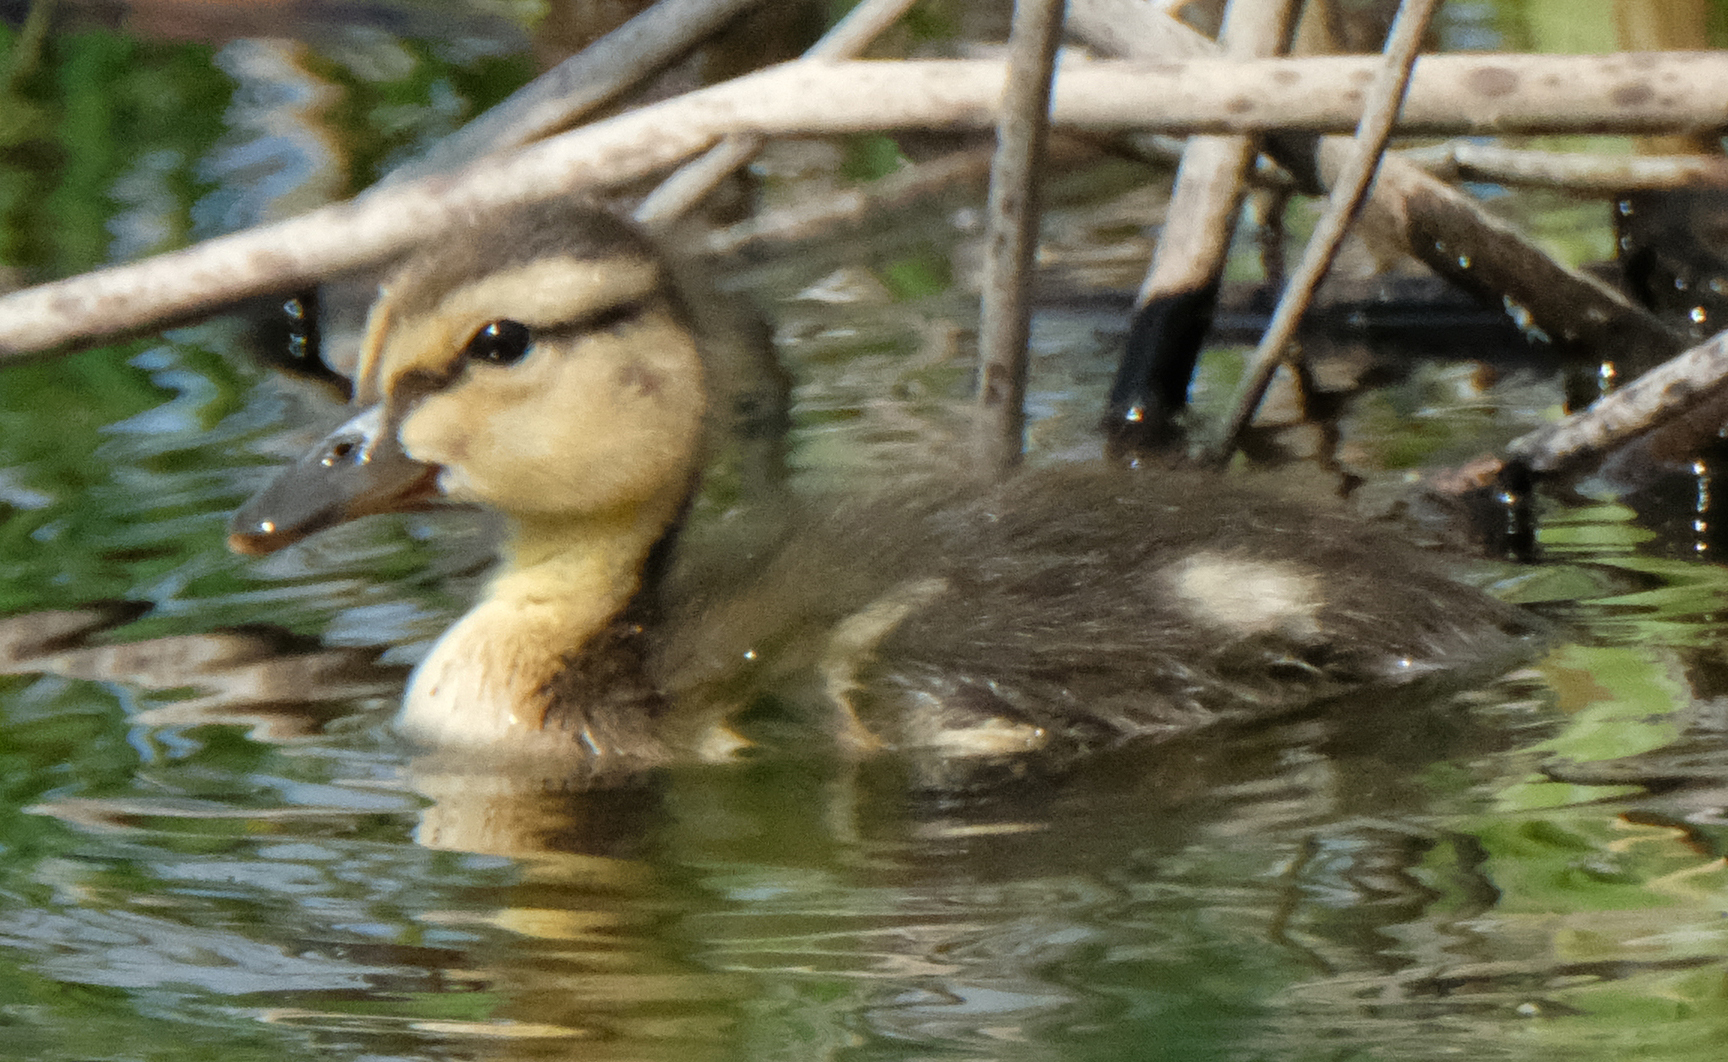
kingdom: Animalia
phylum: Chordata
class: Aves
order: Anseriformes
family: Anatidae
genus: Anas
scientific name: Anas platyrhynchos
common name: Mallard
